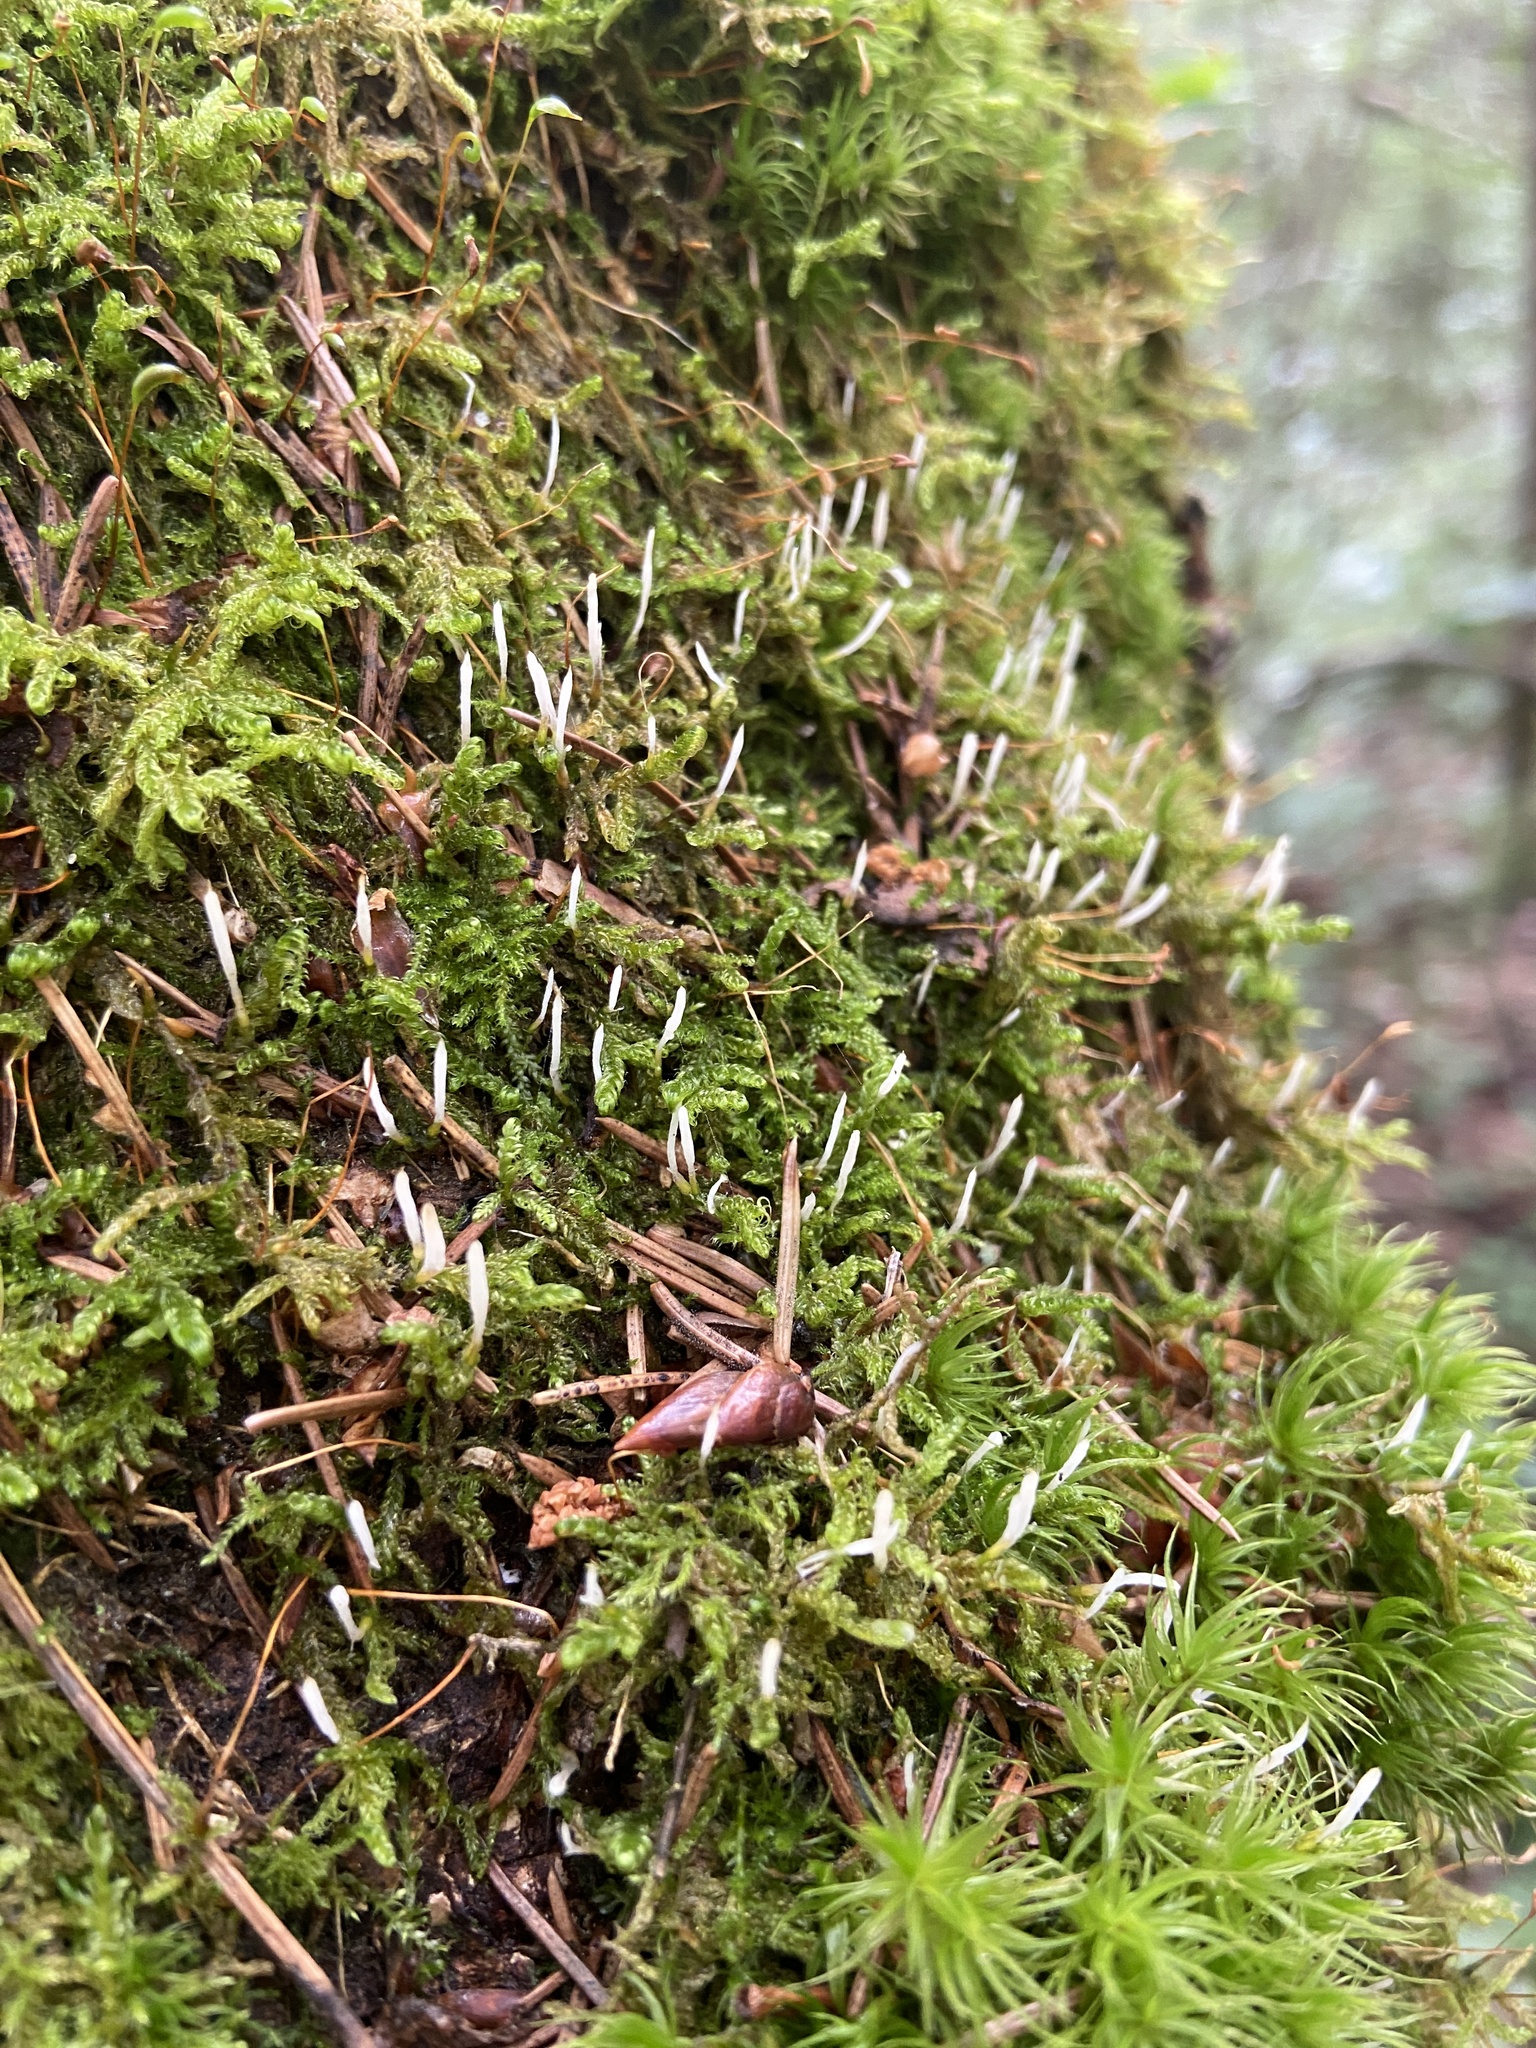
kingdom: Fungi
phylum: Basidiomycota
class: Pucciniomycetes
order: Platygloeales
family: Eocronartiaceae
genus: Eocronartium
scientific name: Eocronartium muscicola
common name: Moss rust
